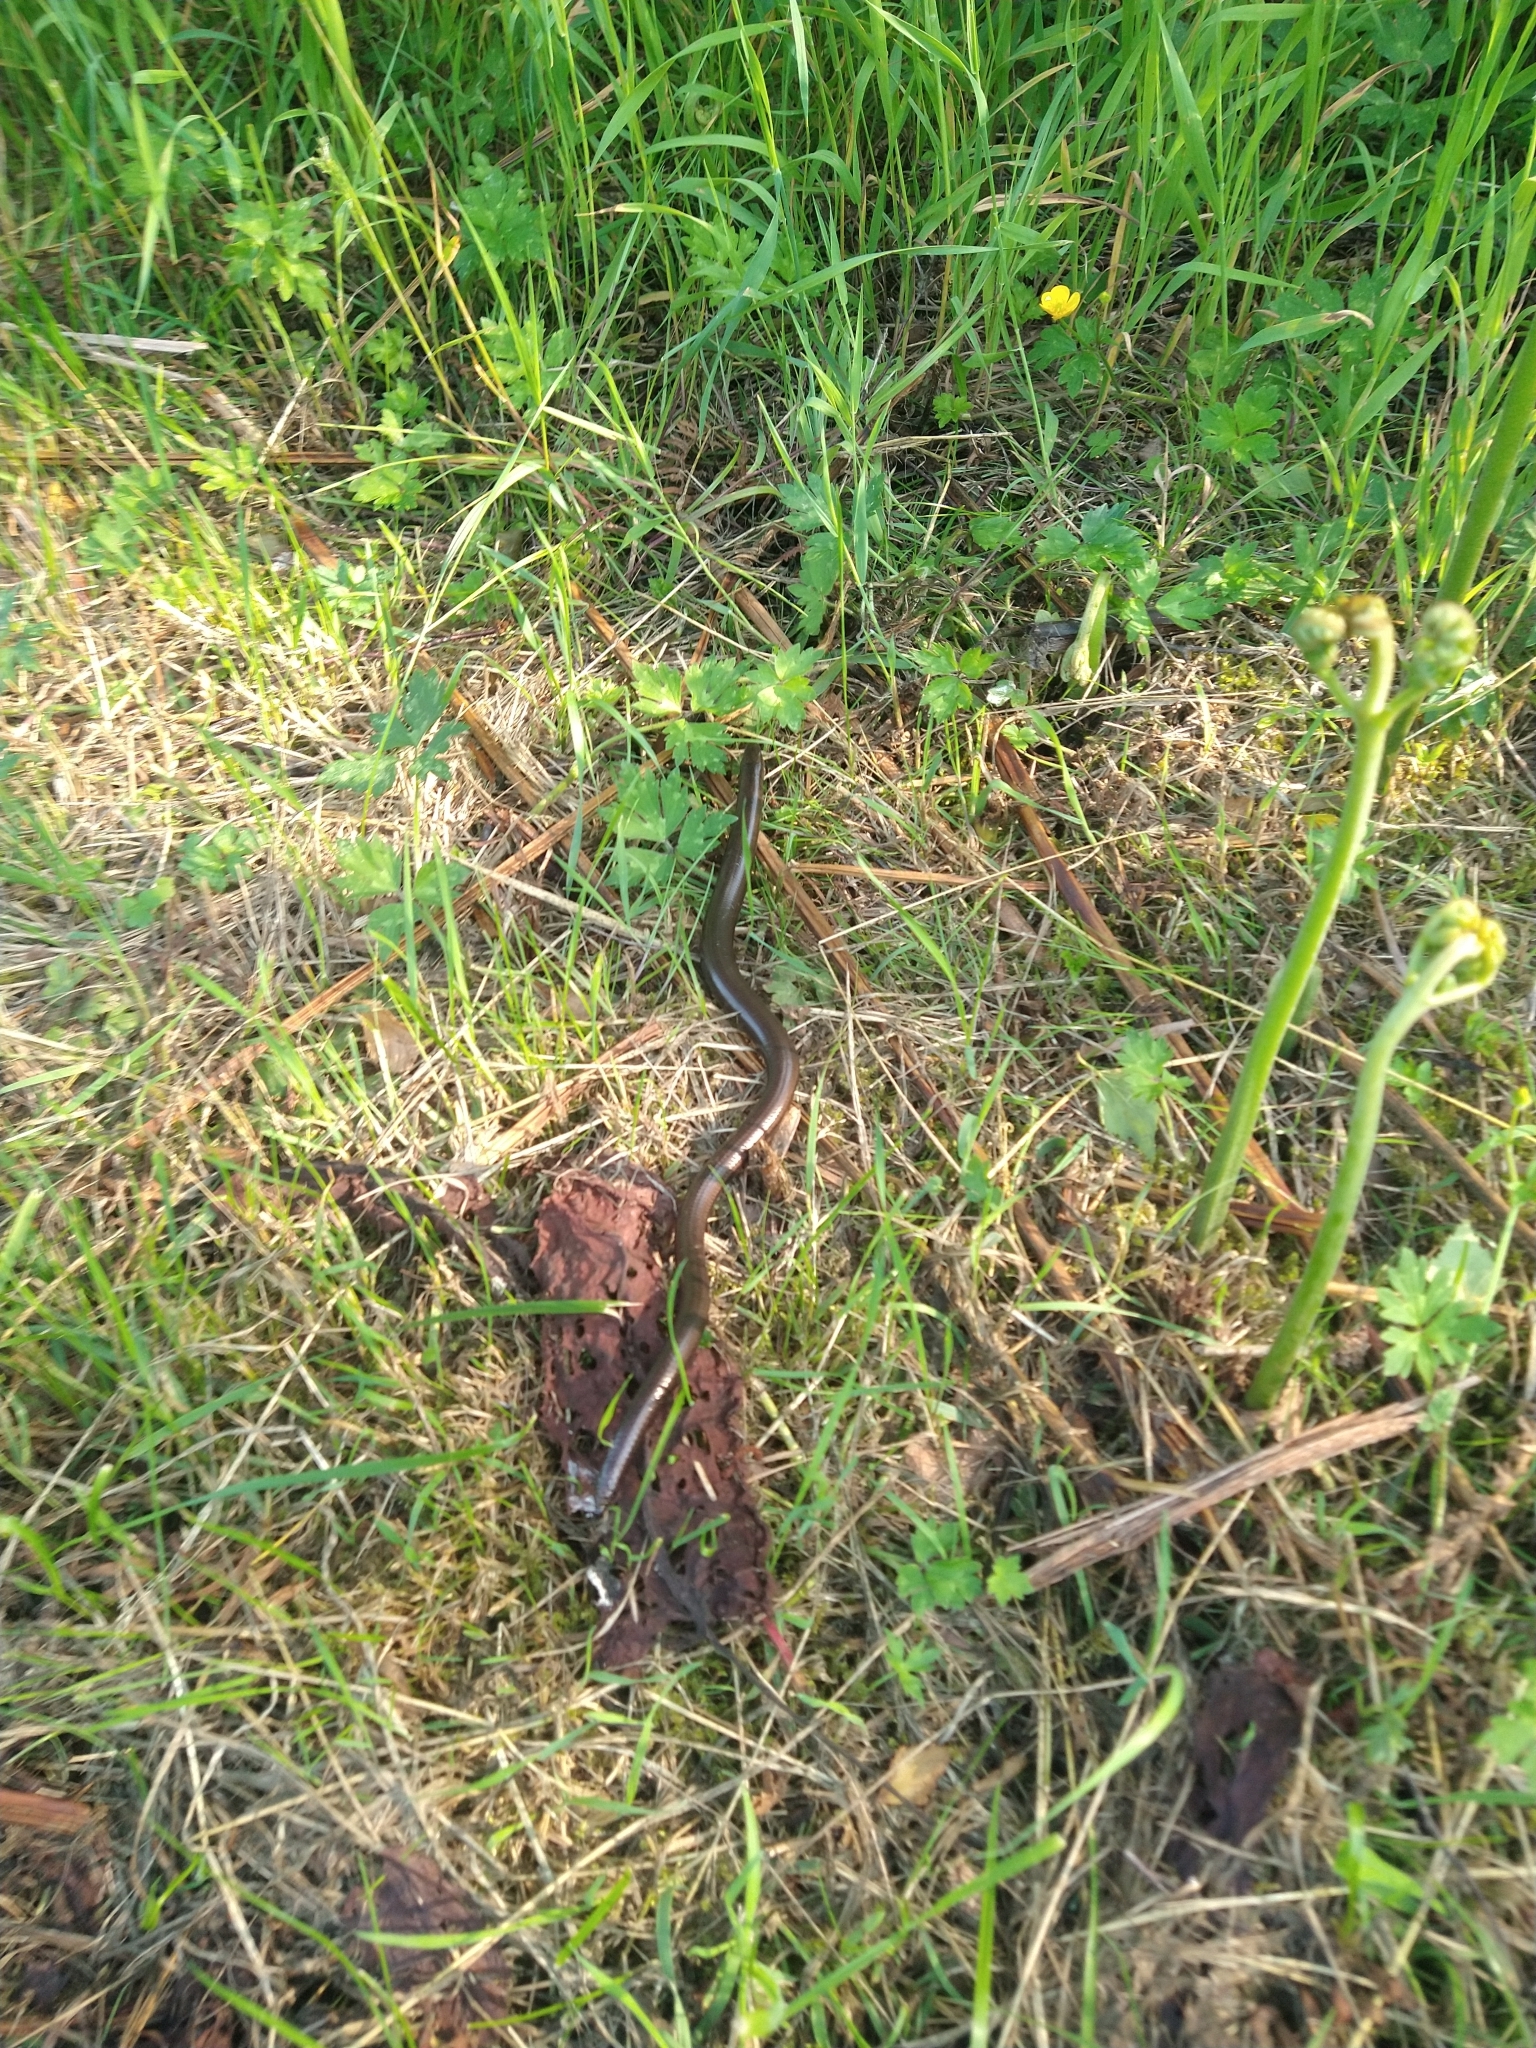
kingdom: Animalia
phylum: Chordata
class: Squamata
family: Anguidae
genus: Anguis
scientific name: Anguis fragilis
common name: Slow worm
